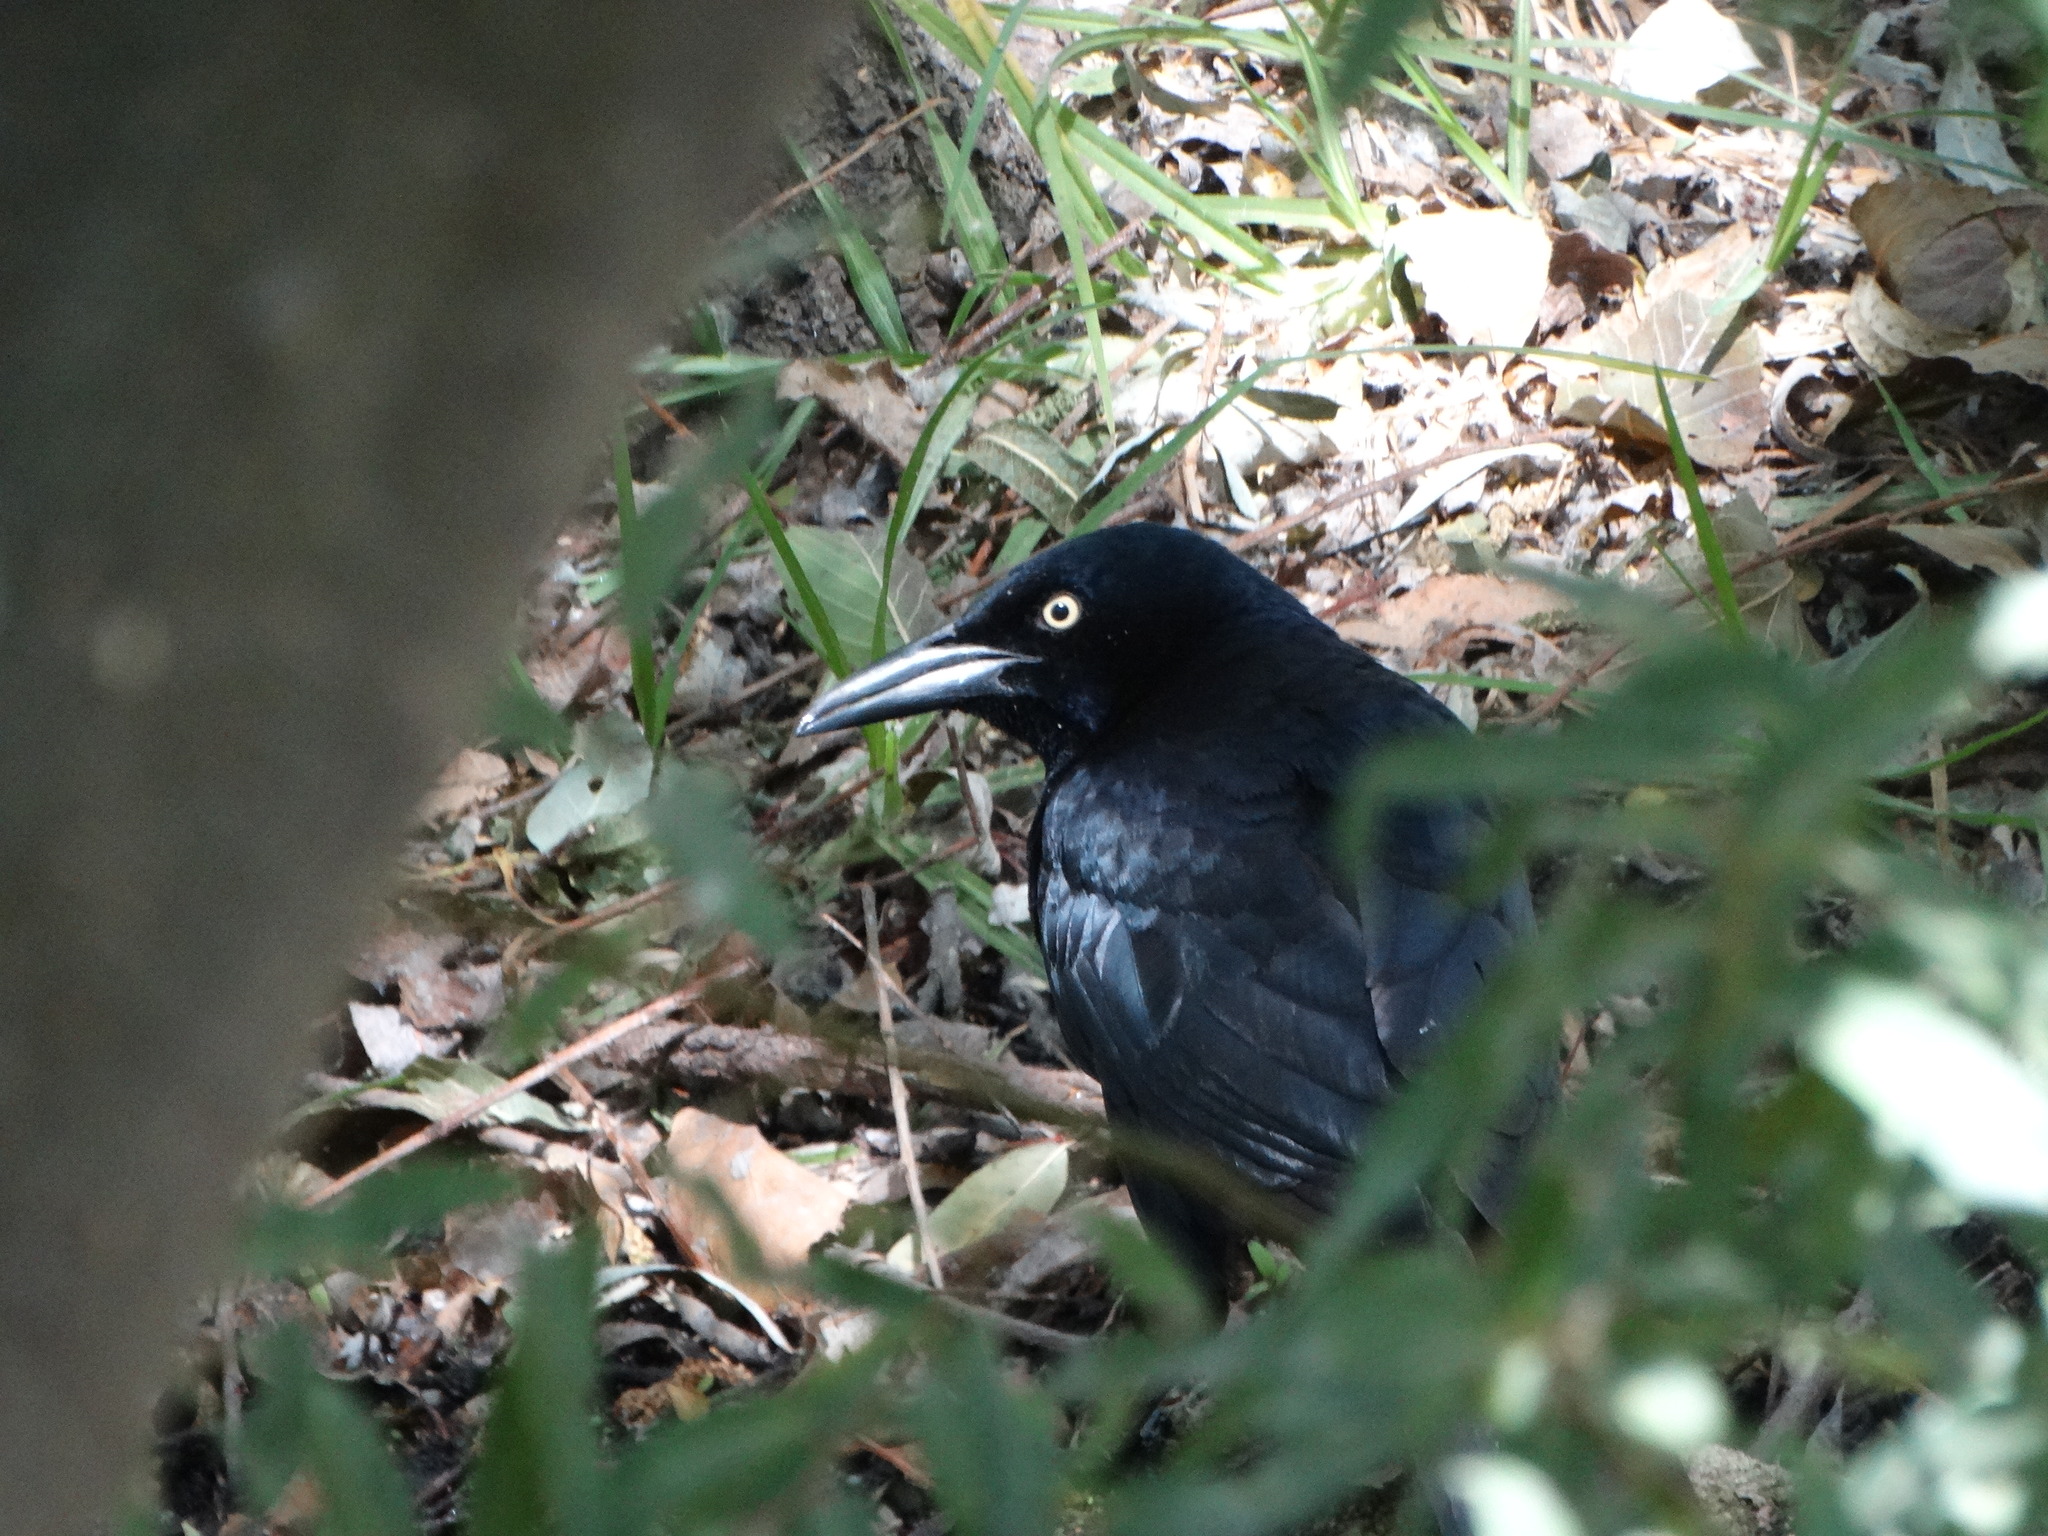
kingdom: Animalia
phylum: Chordata
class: Aves
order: Passeriformes
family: Icteridae
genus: Quiscalus
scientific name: Quiscalus mexicanus
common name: Great-tailed grackle
